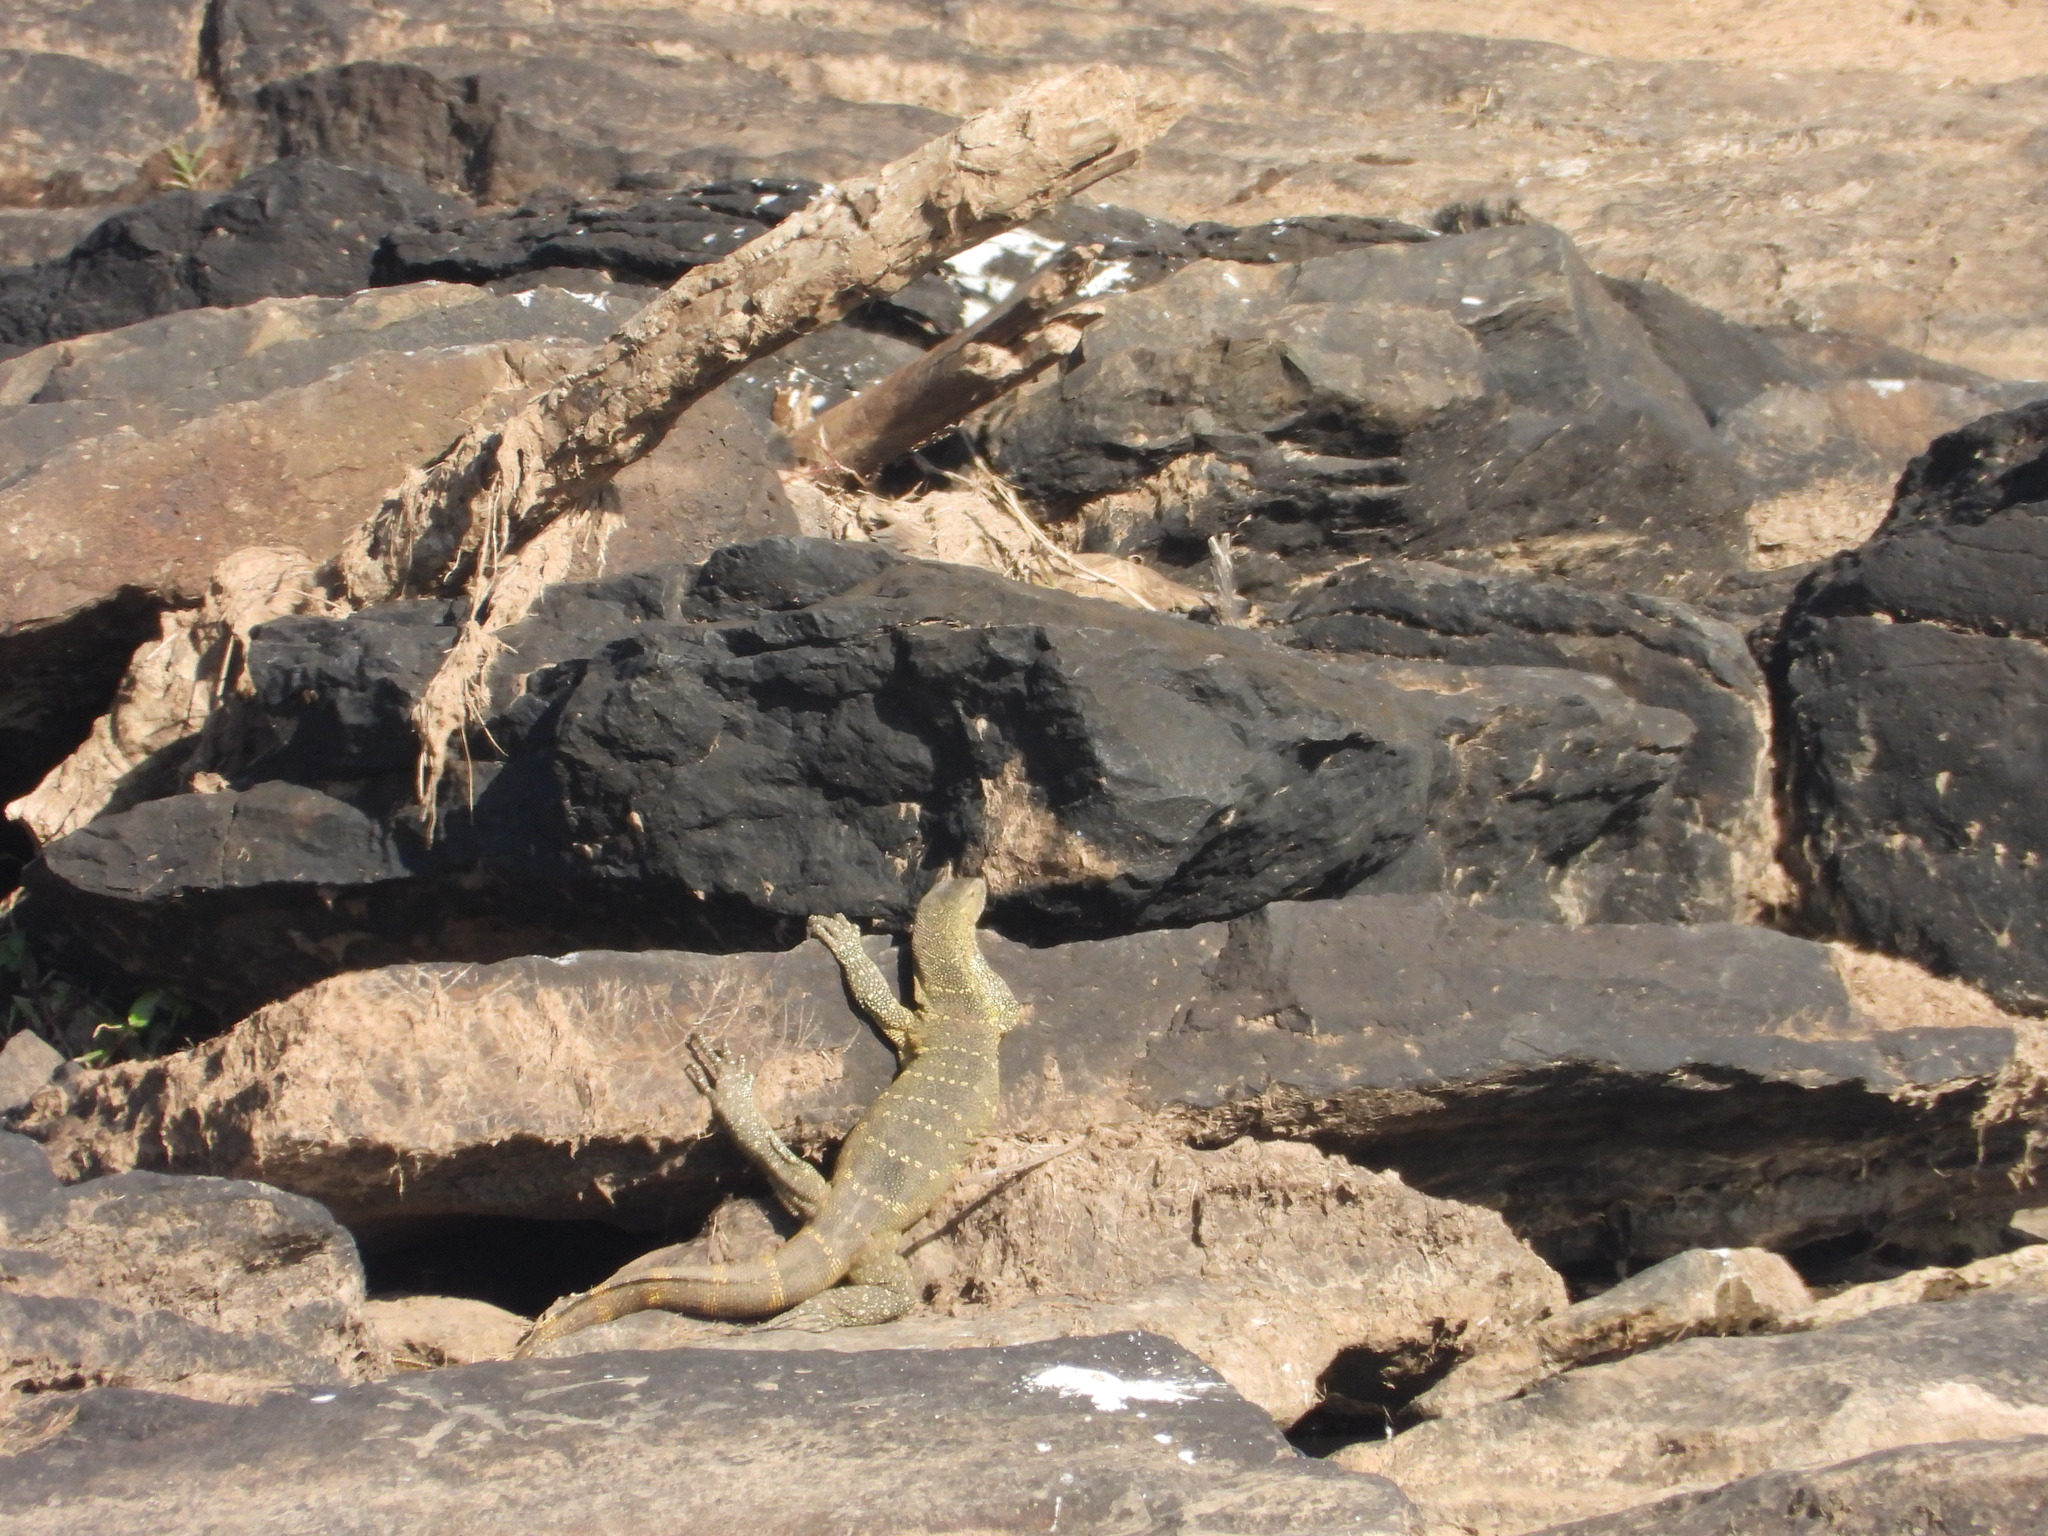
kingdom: Animalia
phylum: Chordata
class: Squamata
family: Varanidae
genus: Varanus
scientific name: Varanus niloticus
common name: Nile monitor
